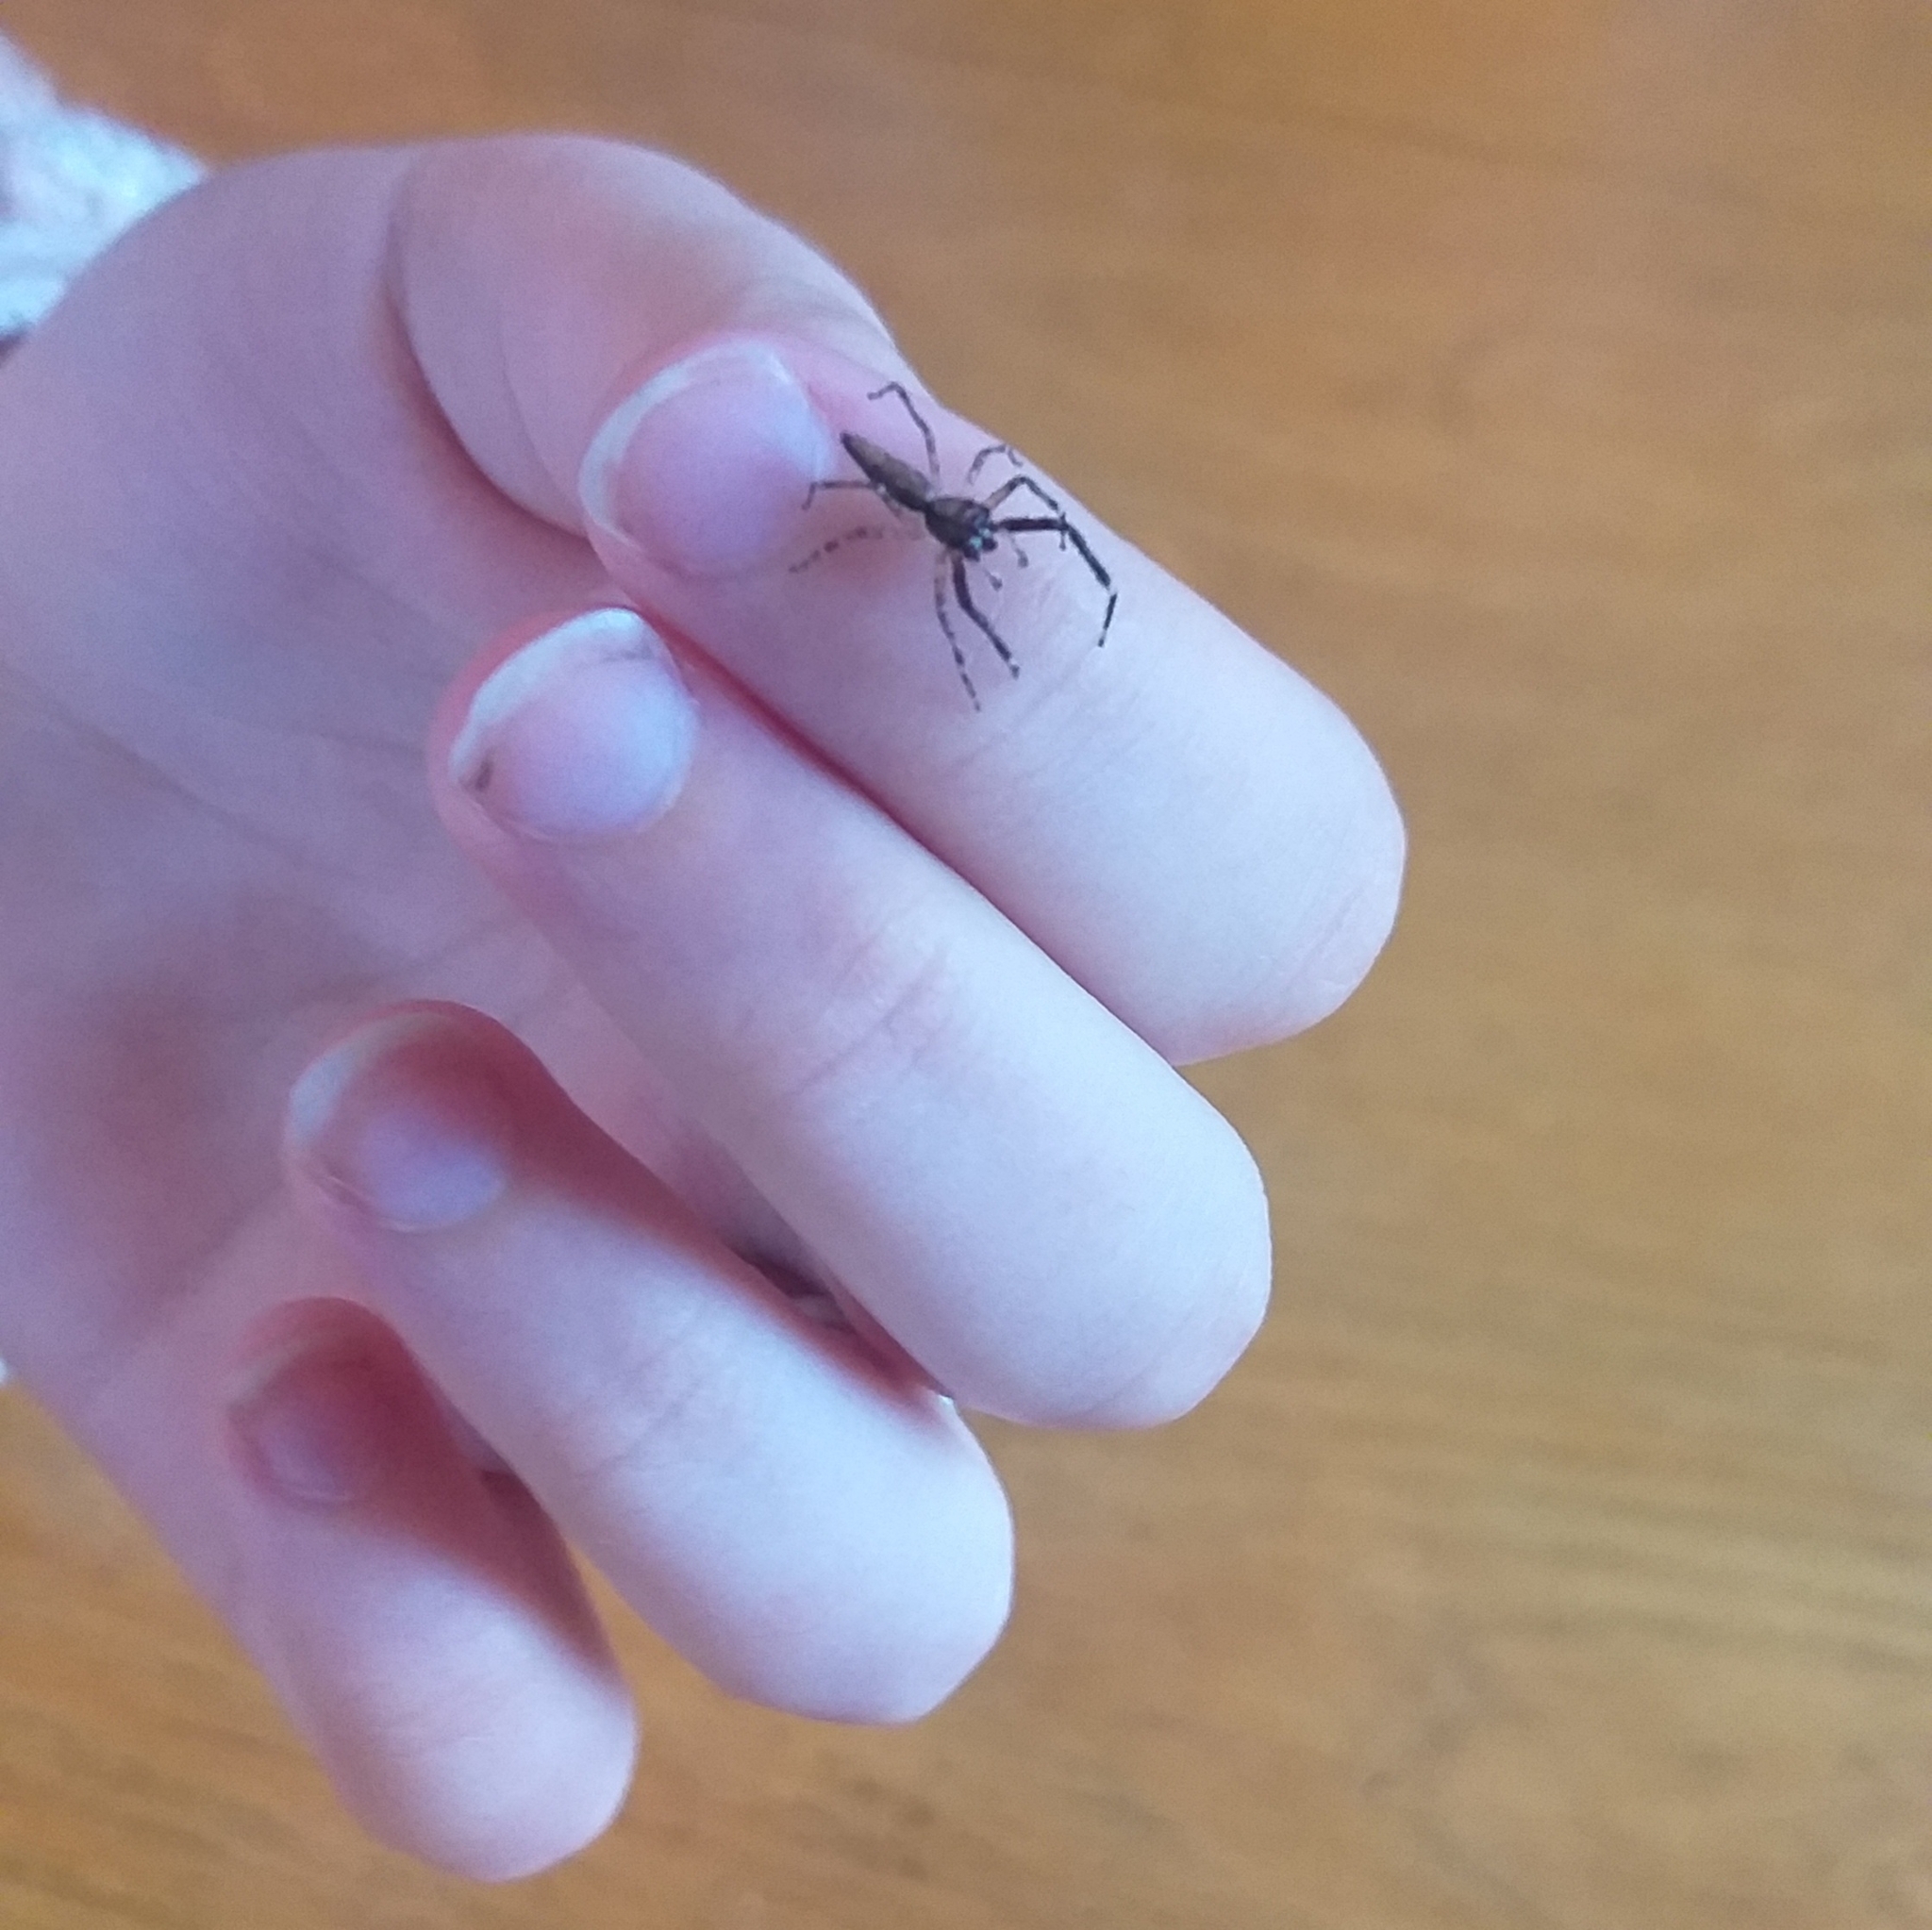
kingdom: Animalia
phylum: Arthropoda
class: Arachnida
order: Araneae
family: Salticidae
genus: Helpis
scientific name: Helpis minitabunda
